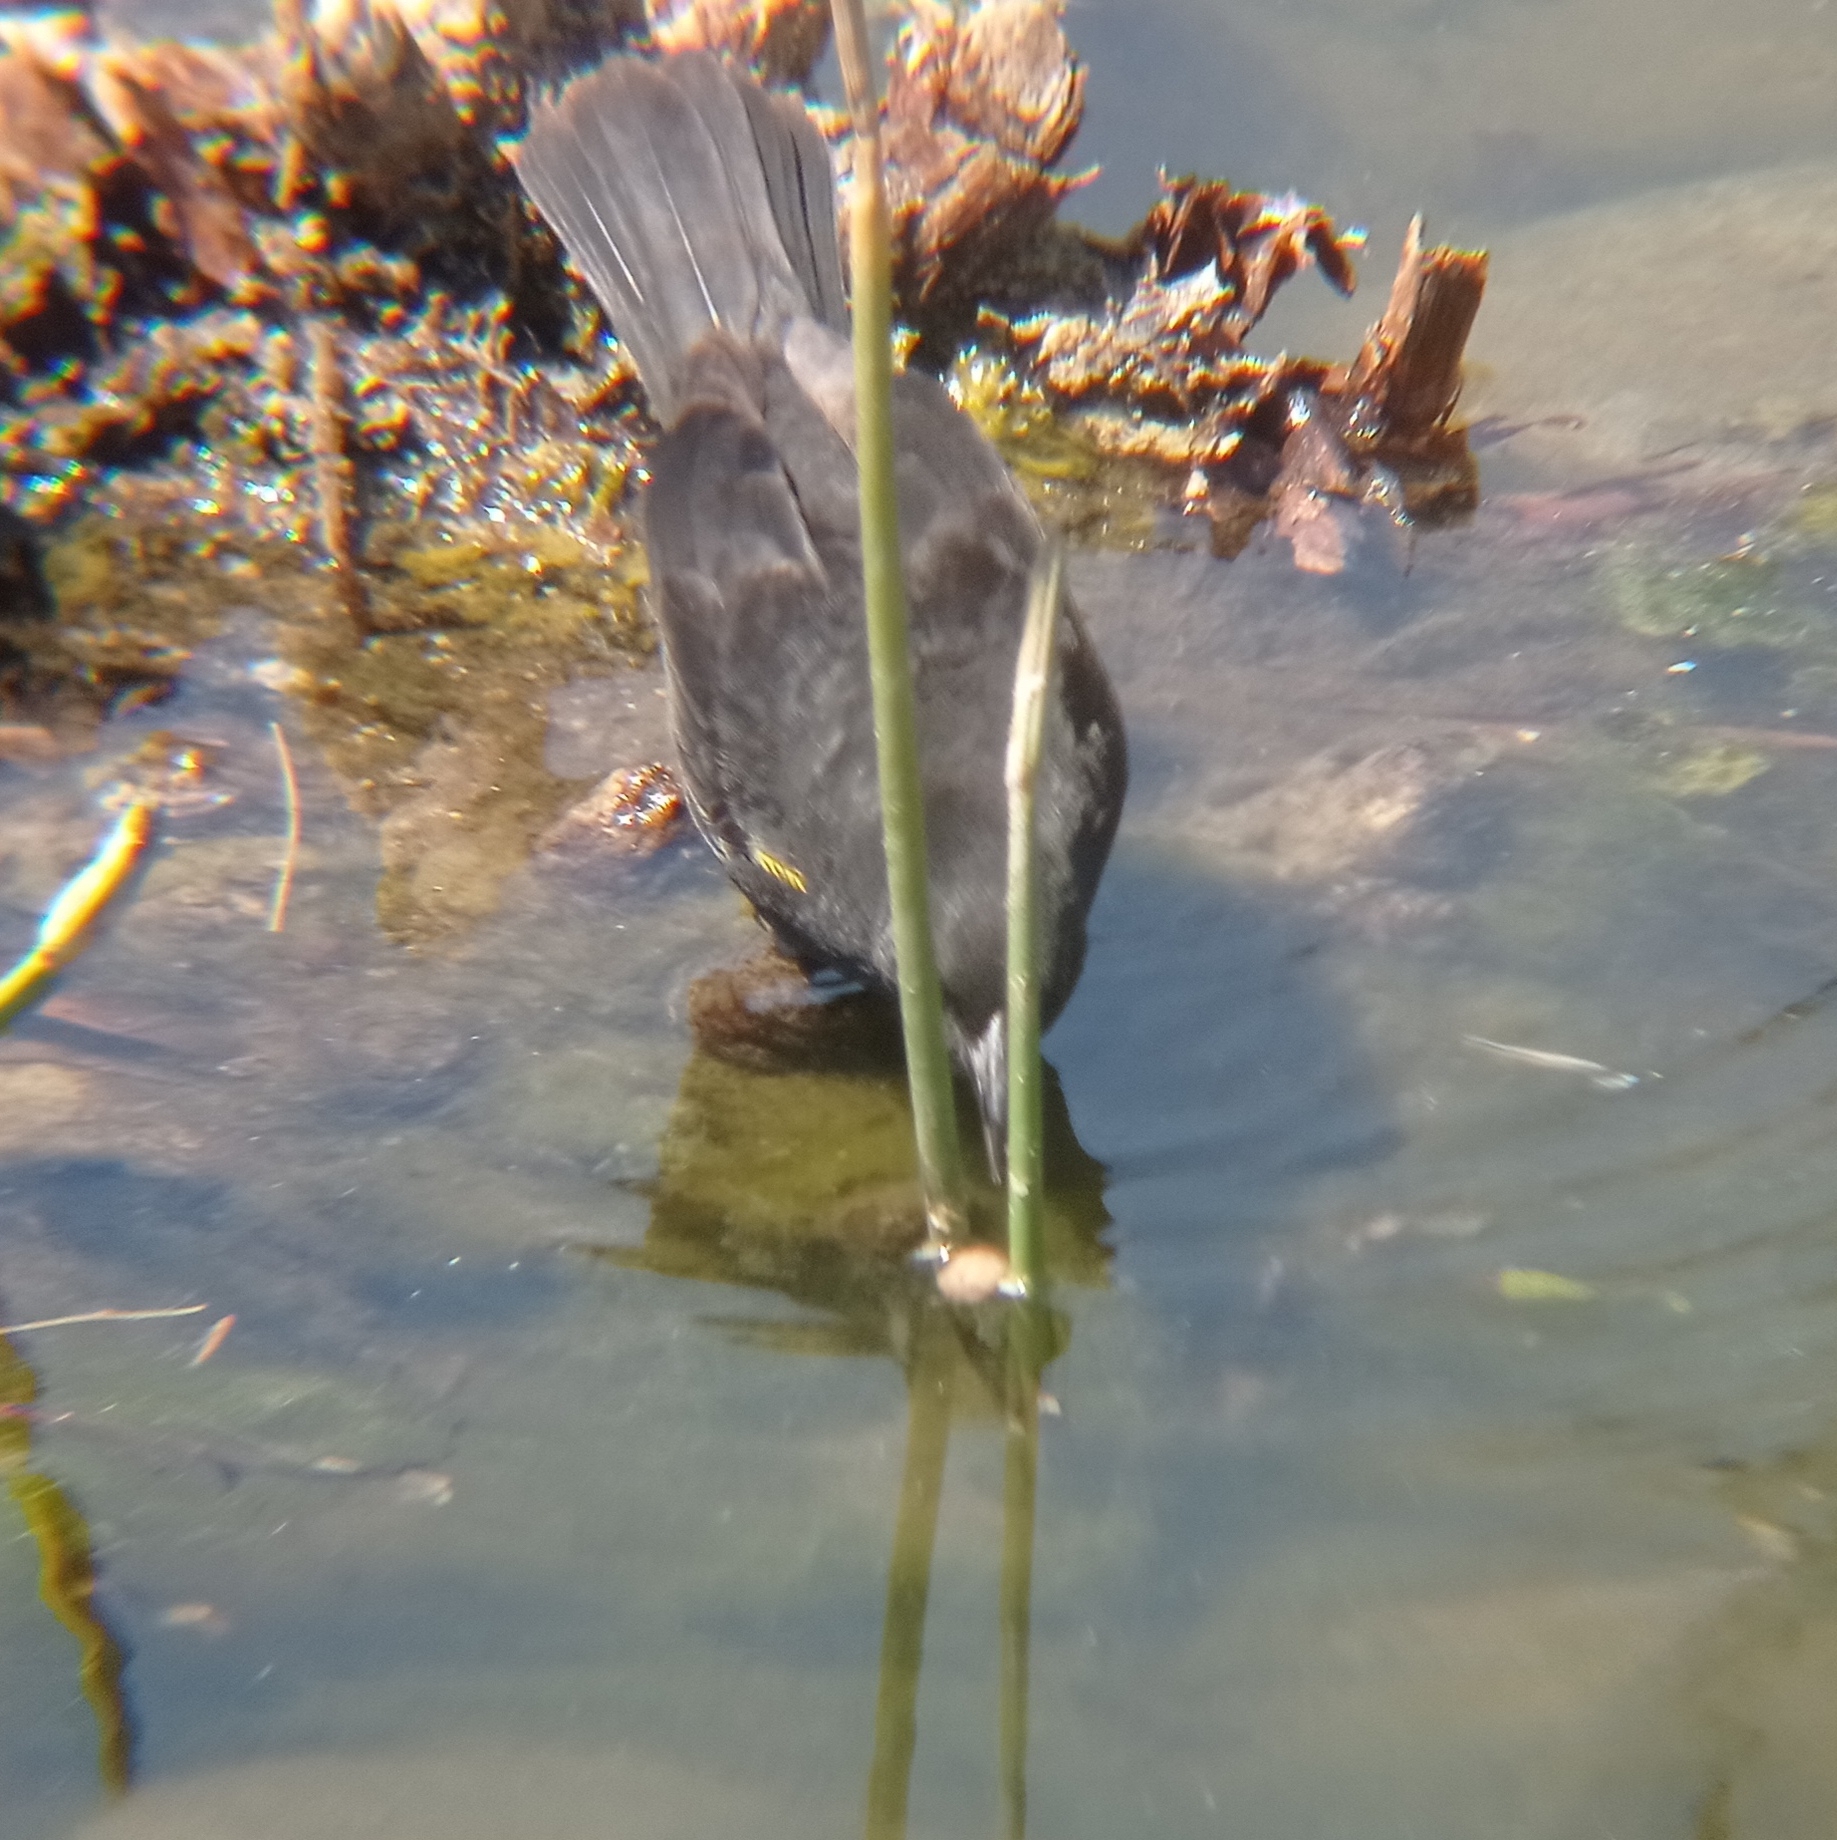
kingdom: Animalia
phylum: Chordata
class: Aves
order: Passeriformes
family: Icteridae
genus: Agelasticus
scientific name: Agelasticus thilius
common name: Yellow-winged blackbird
